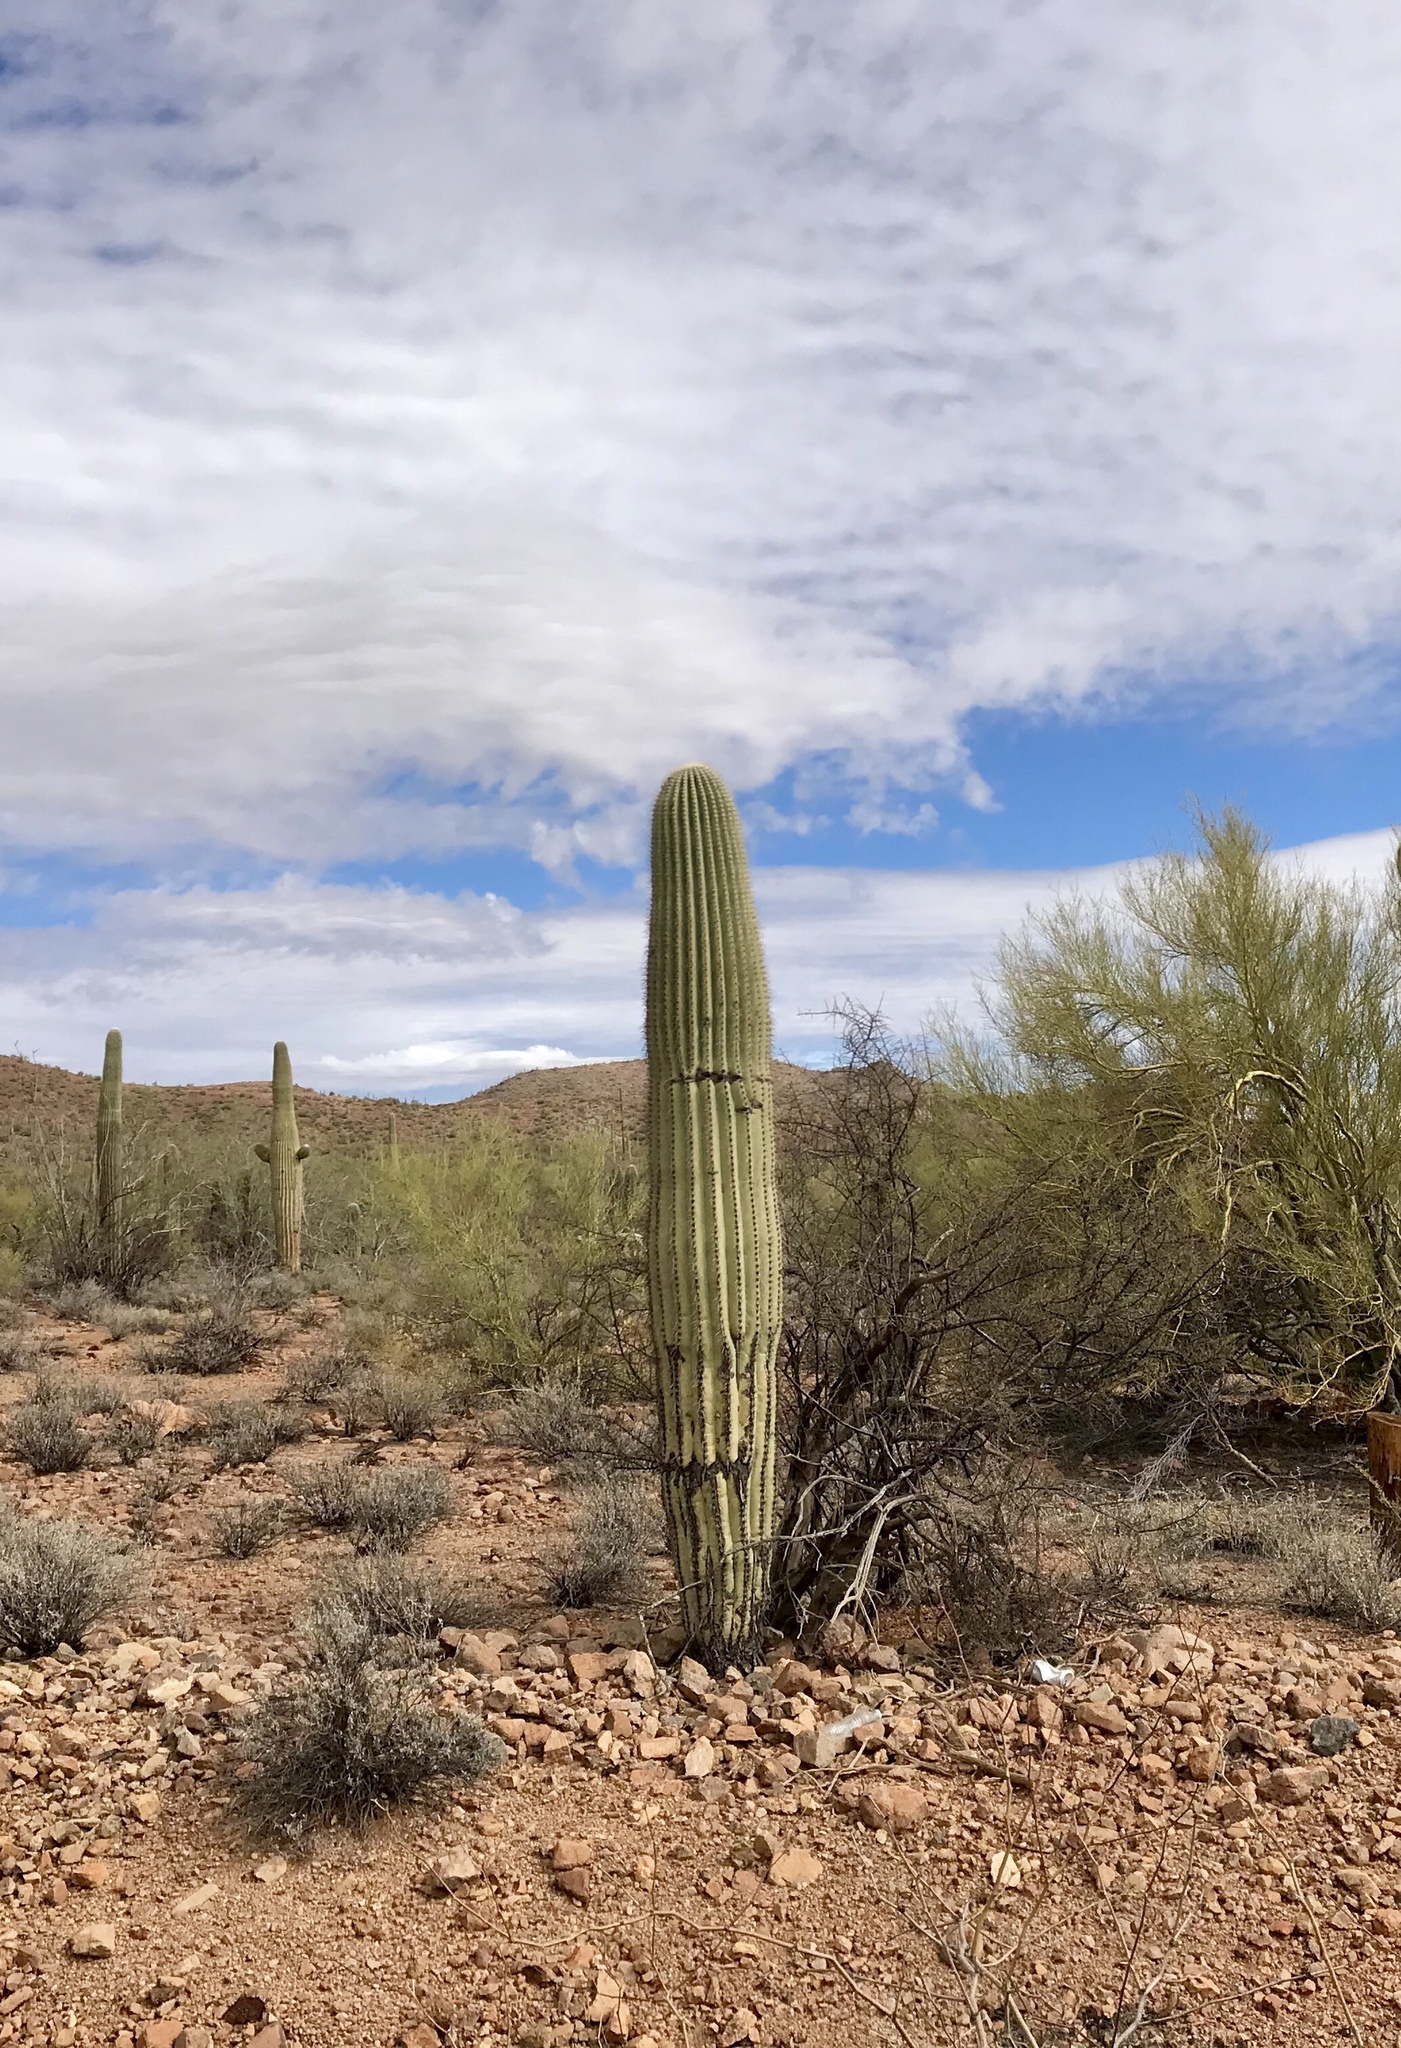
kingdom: Plantae
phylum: Tracheophyta
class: Magnoliopsida
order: Caryophyllales
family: Cactaceae
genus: Carnegiea
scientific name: Carnegiea gigantea
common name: Saguaro
